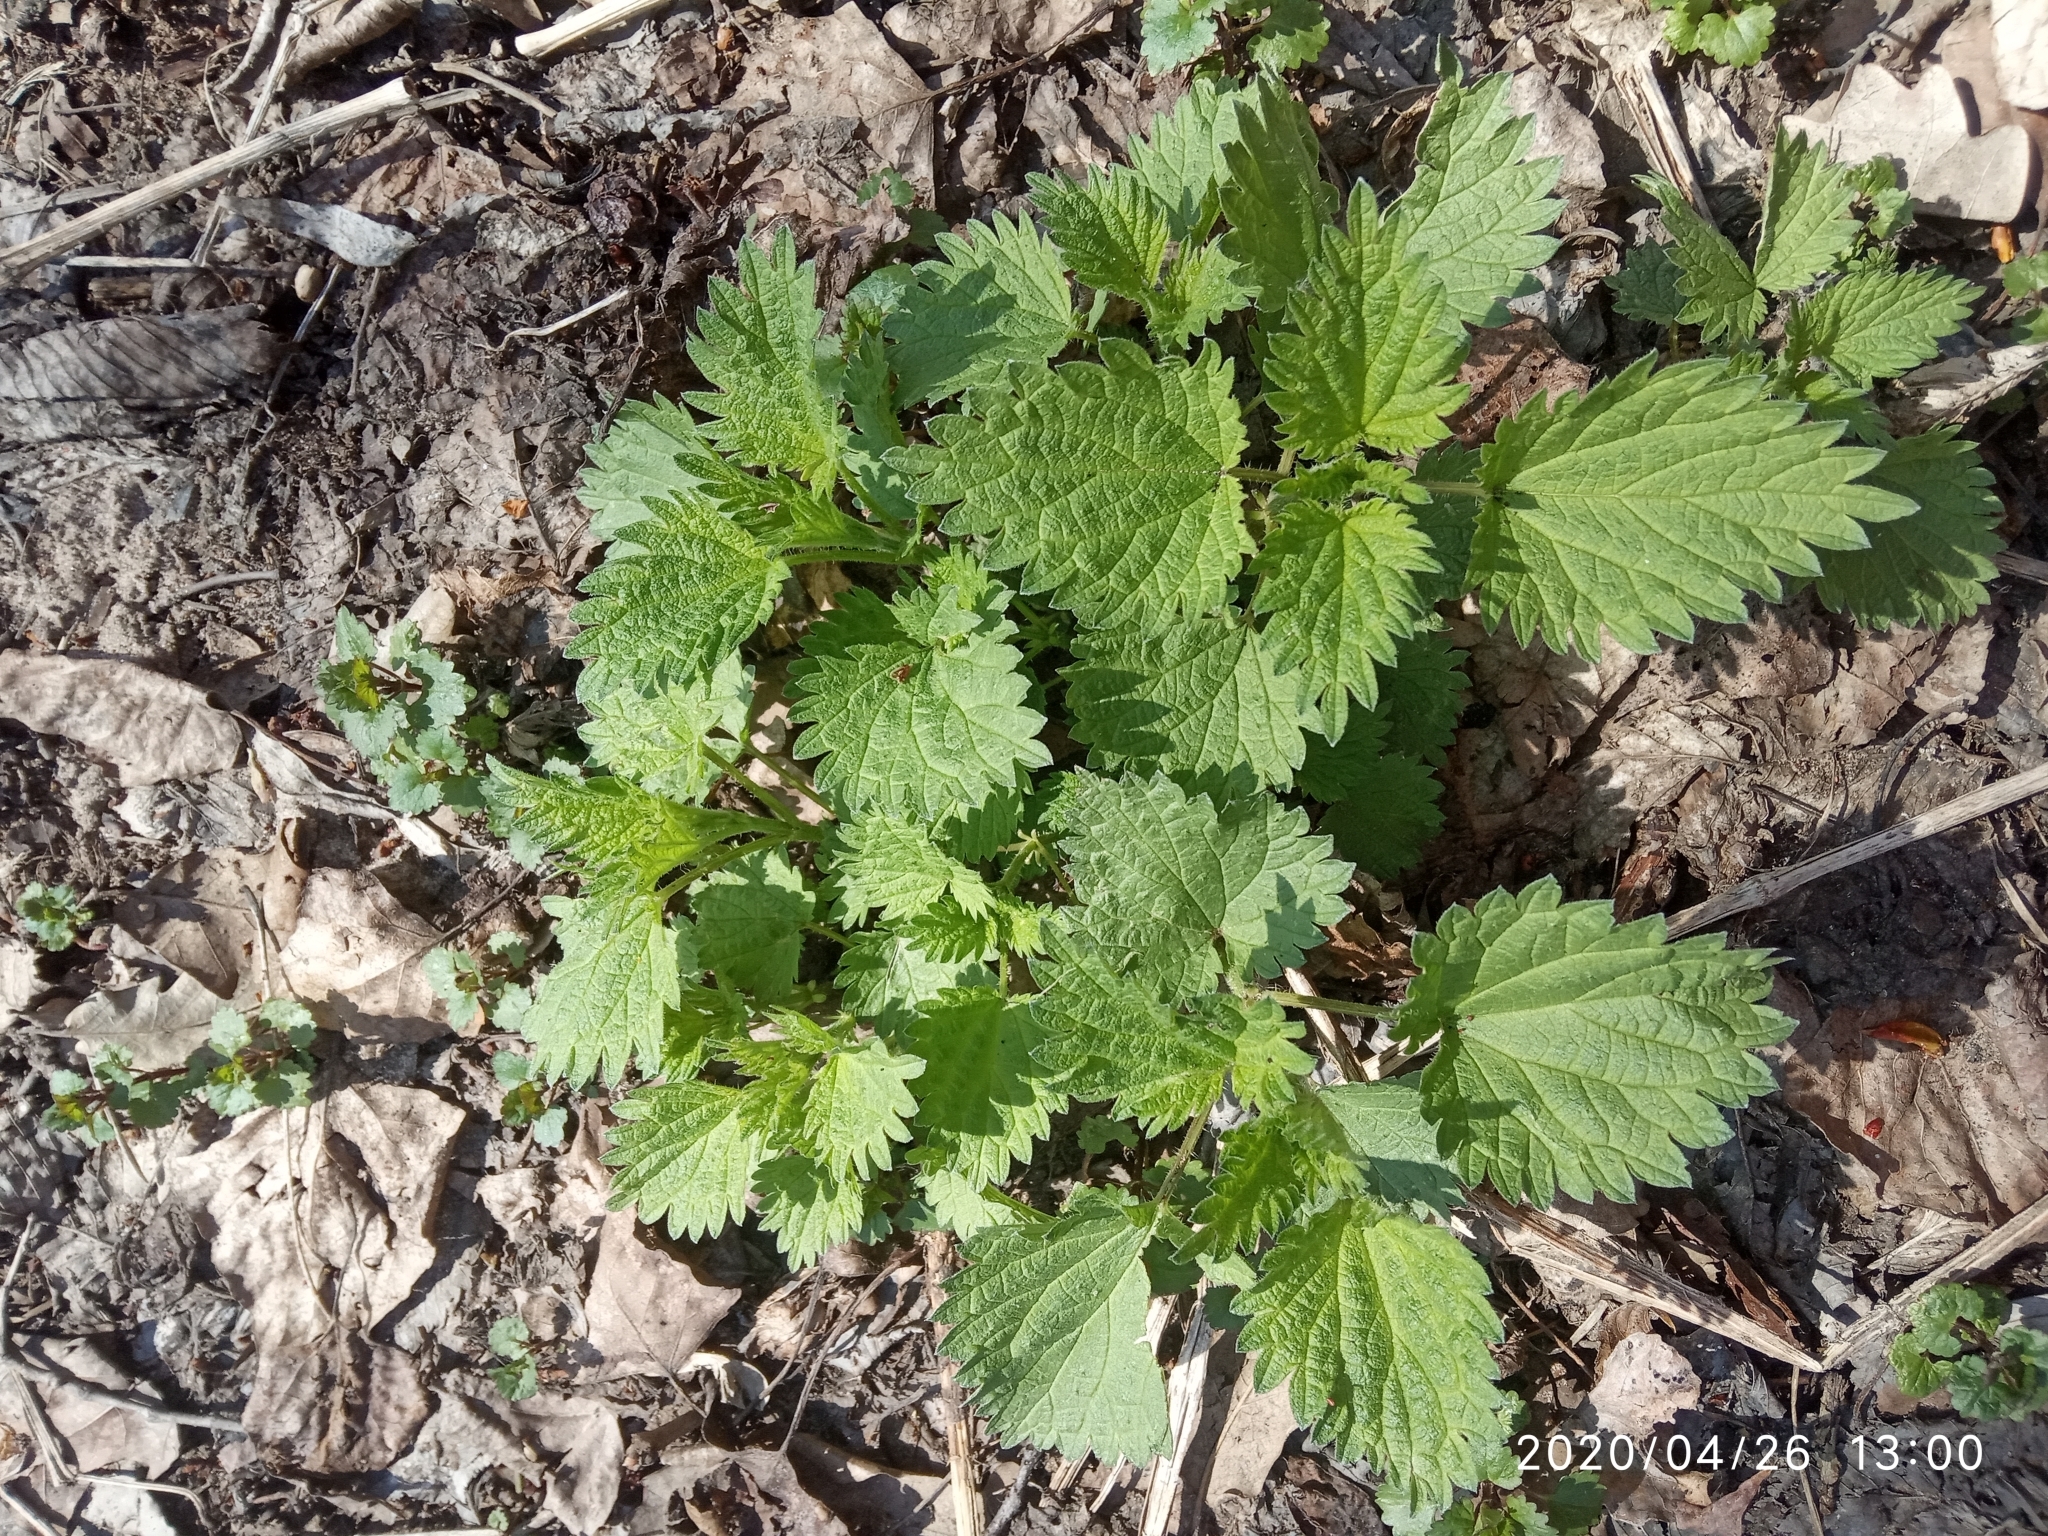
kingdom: Plantae
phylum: Tracheophyta
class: Magnoliopsida
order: Rosales
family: Urticaceae
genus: Urtica
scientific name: Urtica dioica
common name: Common nettle
